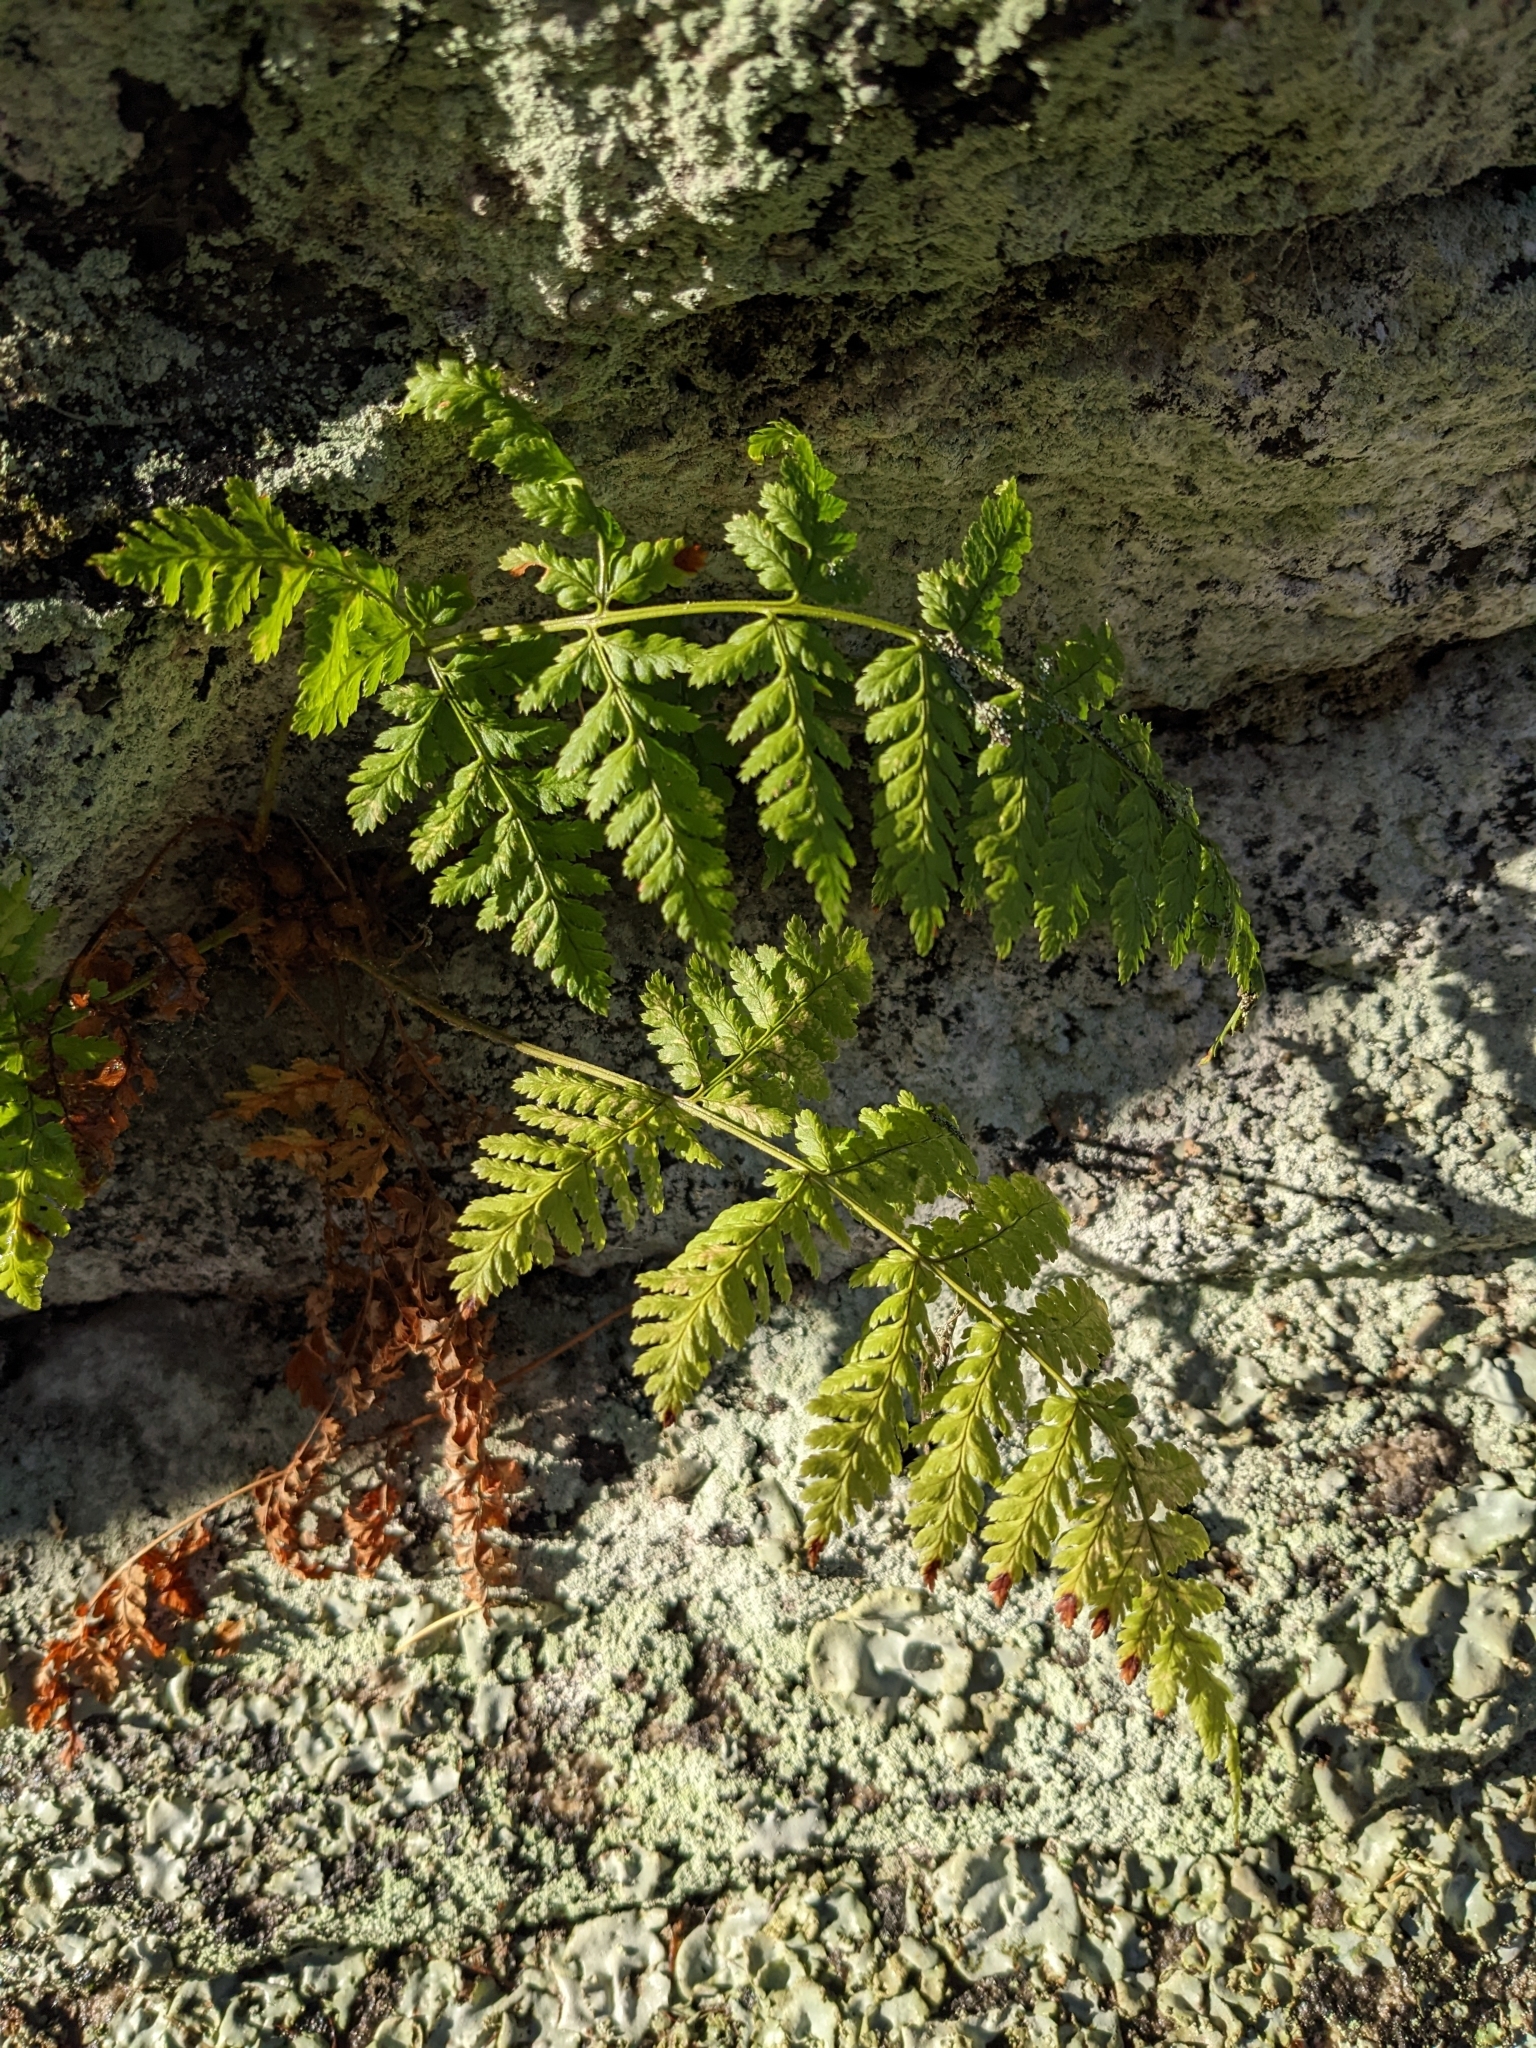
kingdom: Plantae
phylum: Tracheophyta
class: Polypodiopsida
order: Polypodiales
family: Dryopteridaceae
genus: Dryopteris
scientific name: Dryopteris dilatata
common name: Broad buckler-fern
